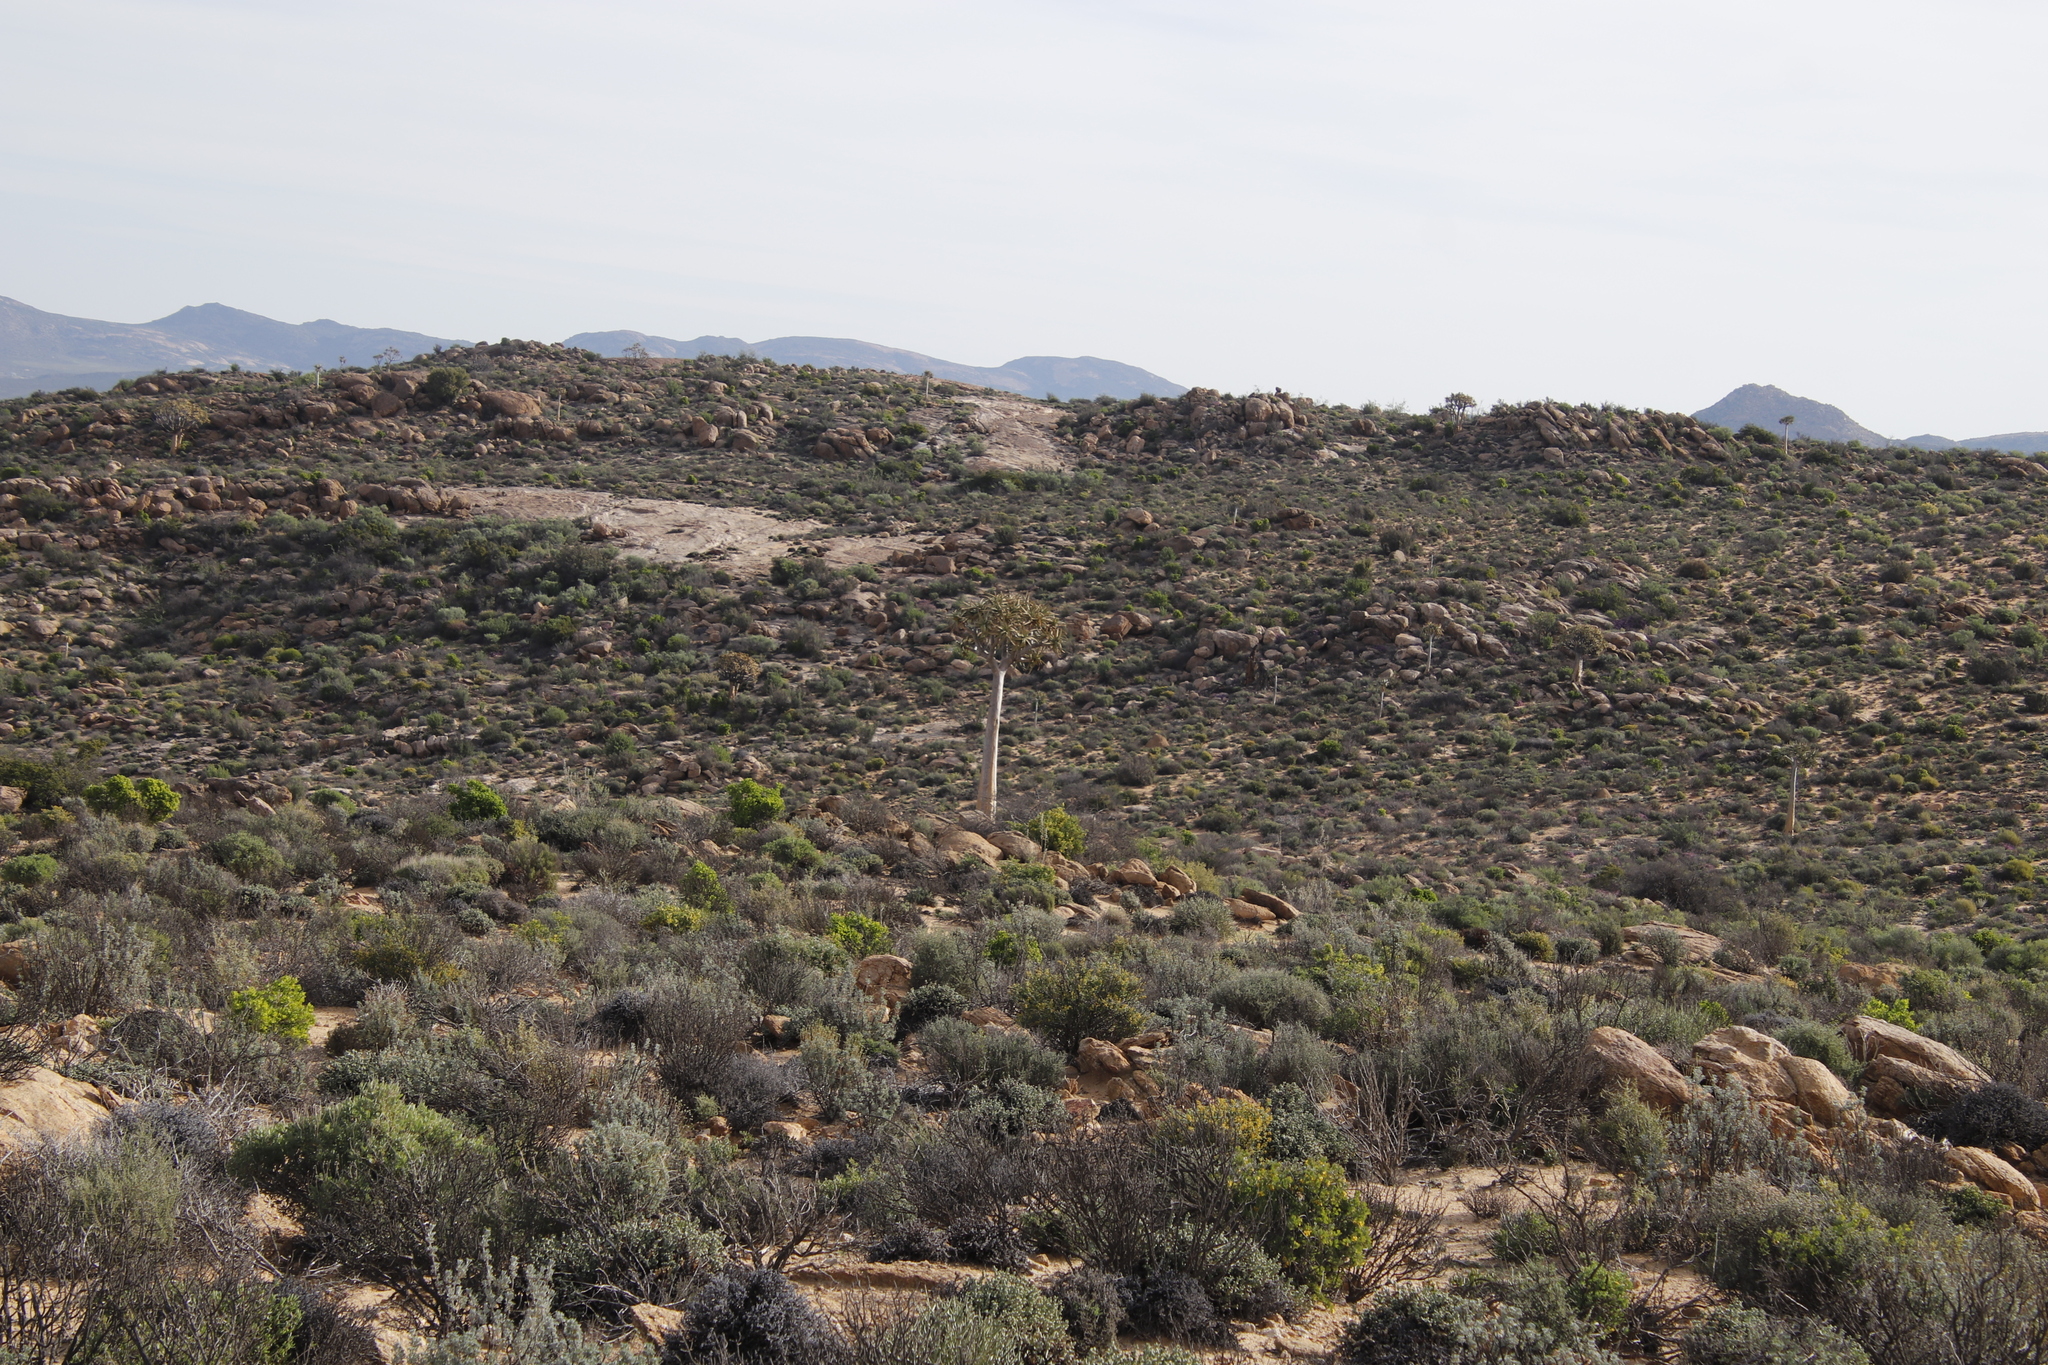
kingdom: Plantae
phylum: Tracheophyta
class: Liliopsida
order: Asparagales
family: Asphodelaceae
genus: Aloidendron
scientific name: Aloidendron dichotomum
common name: Quiver tree
